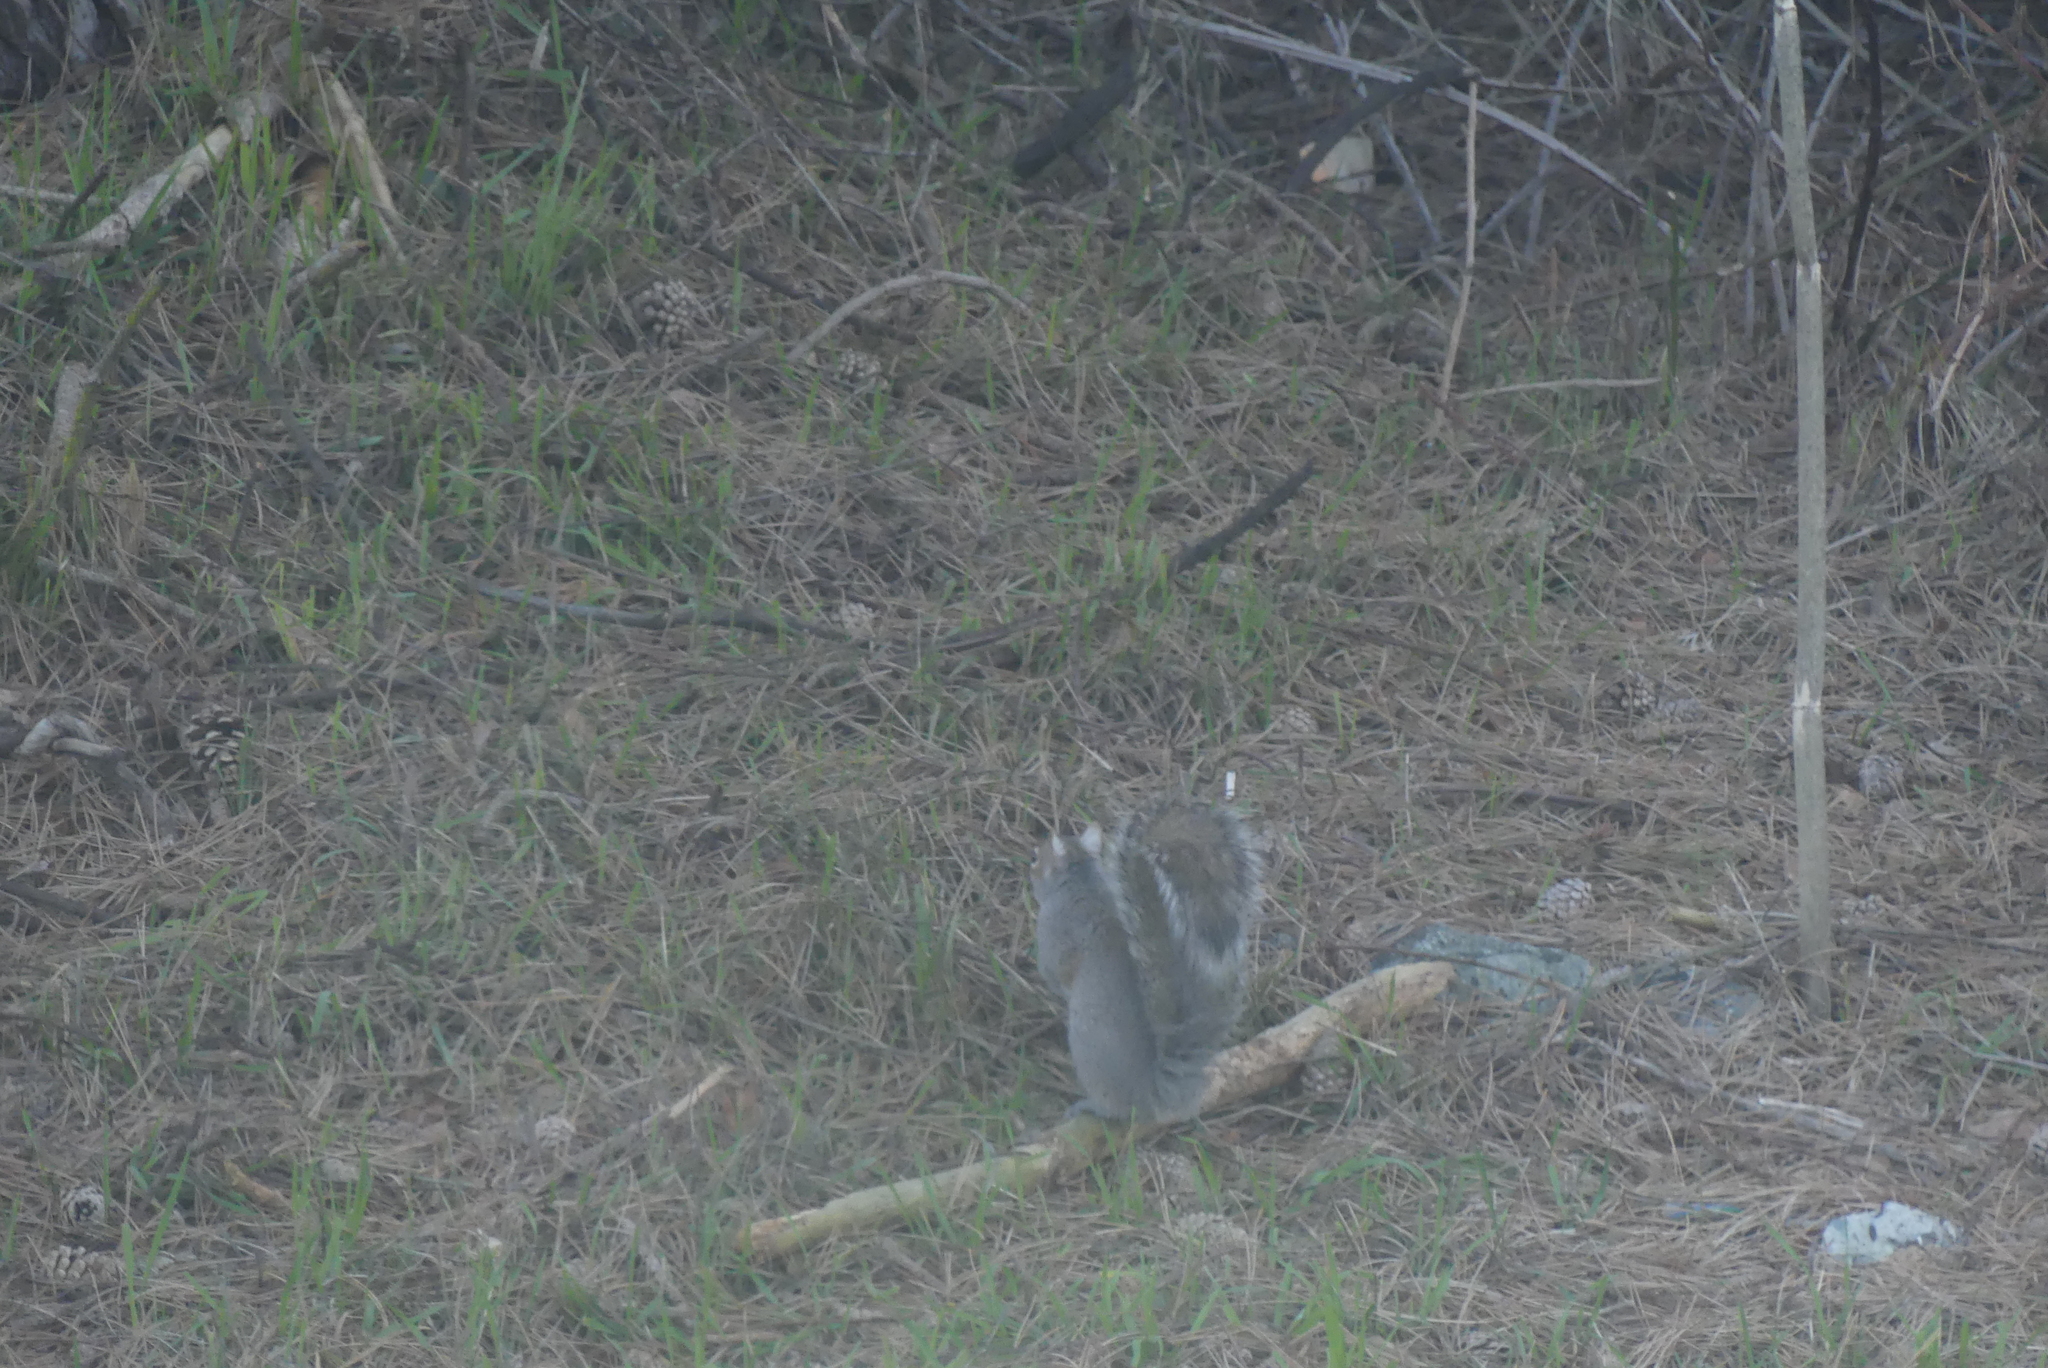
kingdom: Animalia
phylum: Chordata
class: Mammalia
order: Rodentia
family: Sciuridae
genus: Sciurus
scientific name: Sciurus carolinensis
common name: Eastern gray squirrel
